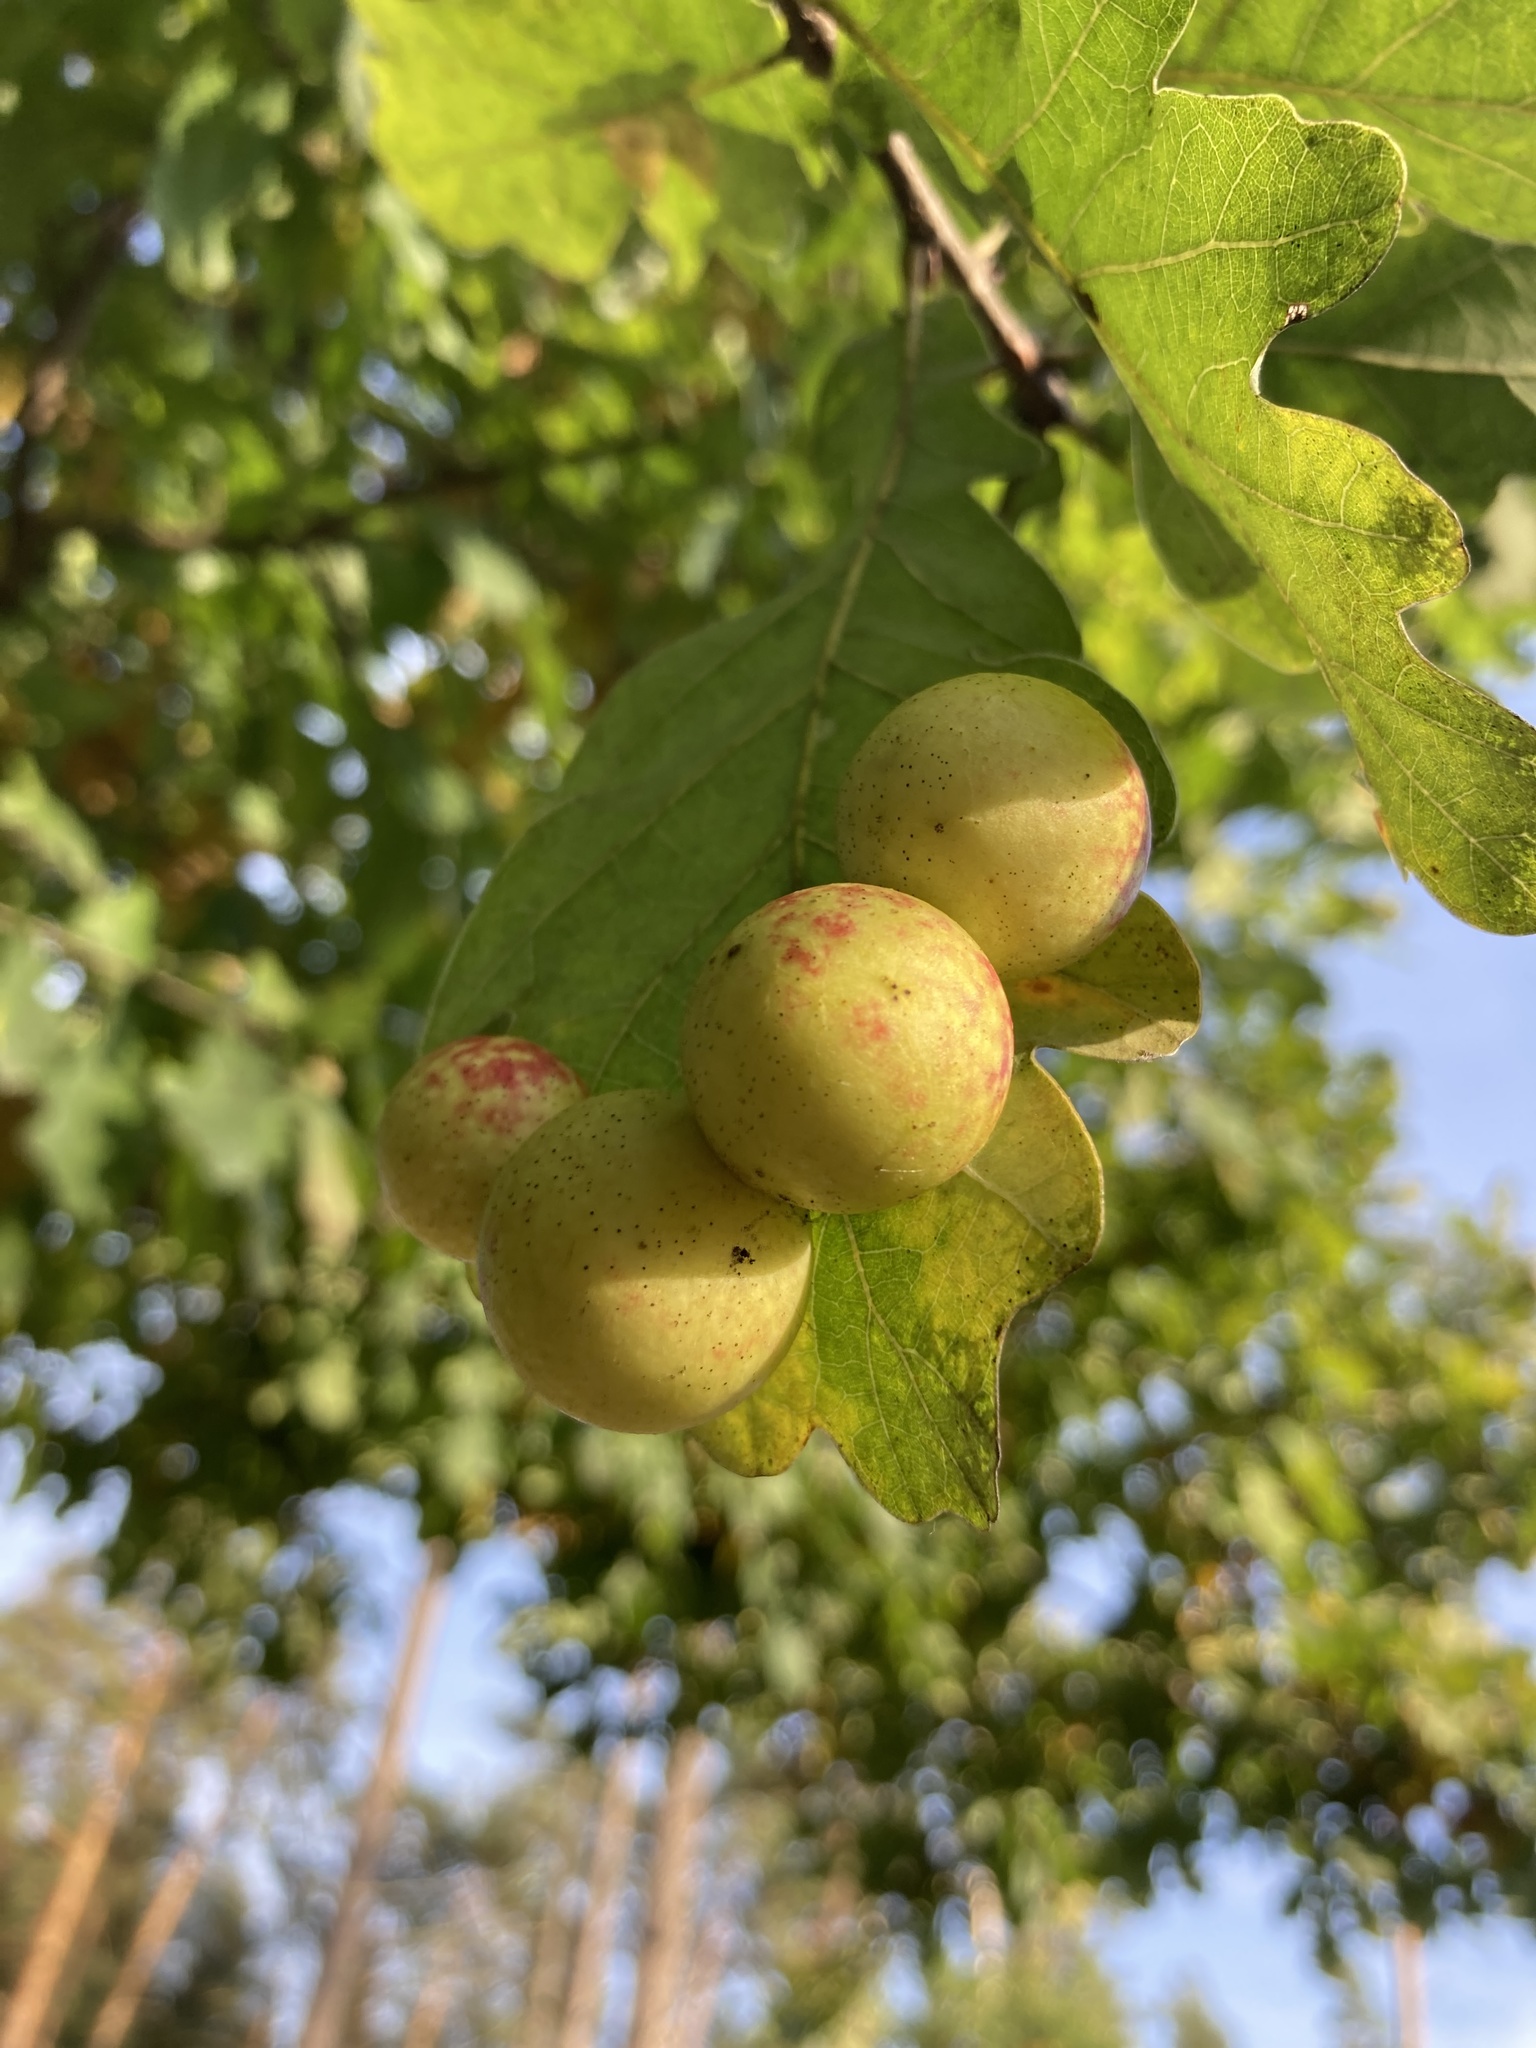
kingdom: Animalia
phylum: Arthropoda
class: Insecta
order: Hymenoptera
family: Cynipidae
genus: Cynips
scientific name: Cynips quercusfolii
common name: Cherry gall
